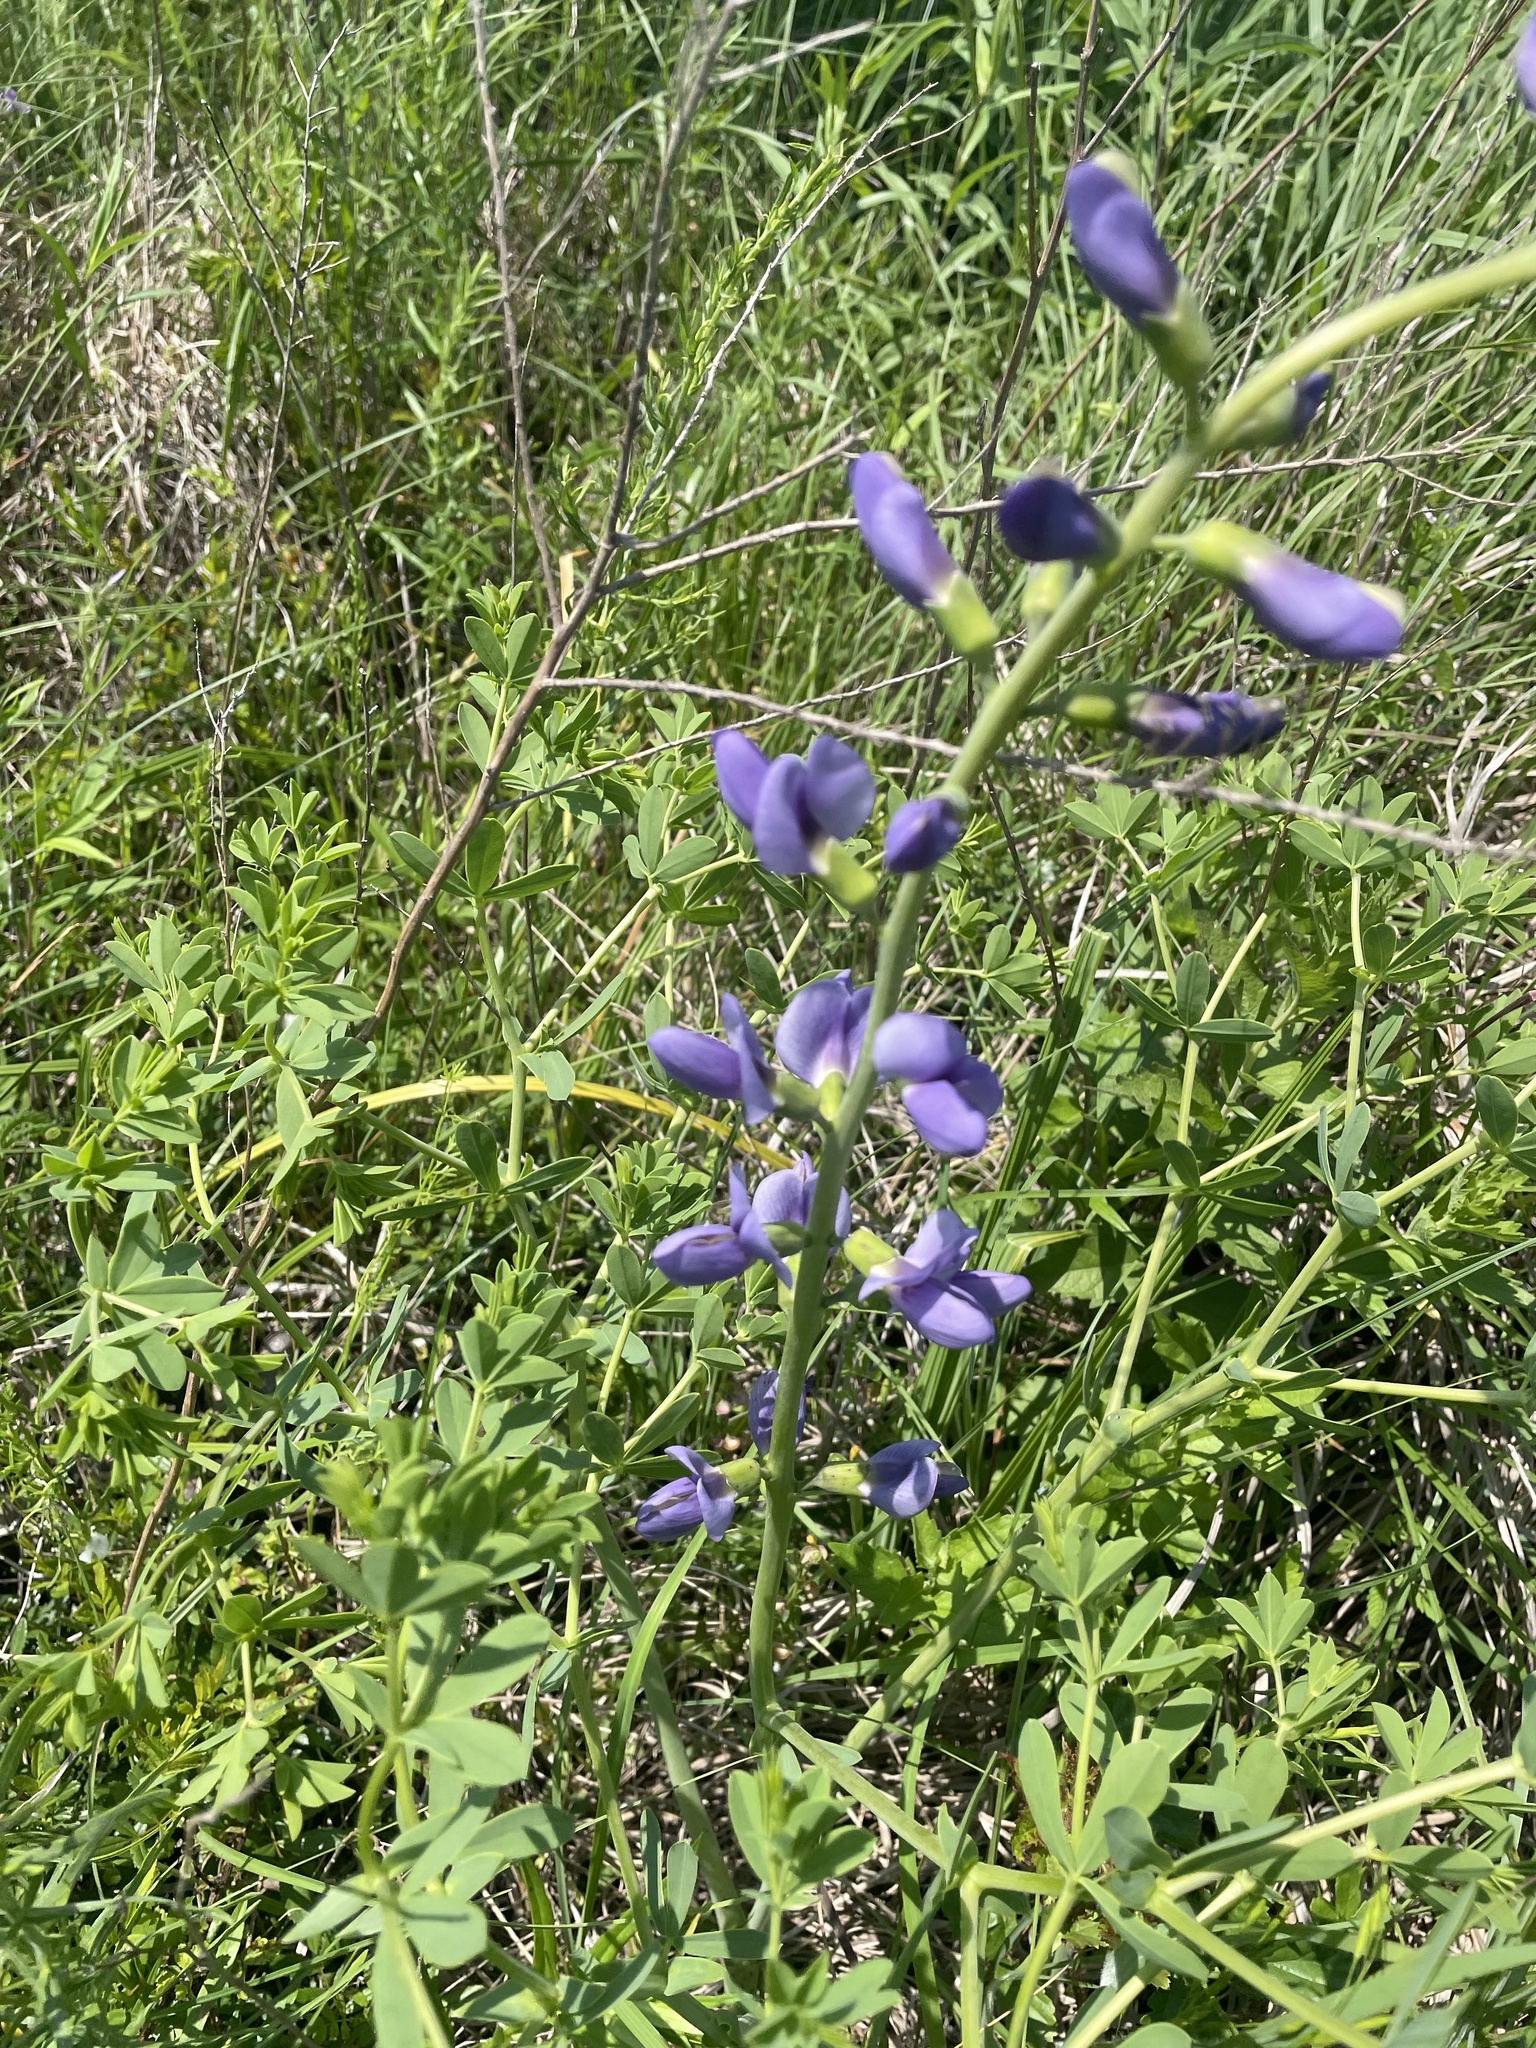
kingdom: Plantae
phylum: Tracheophyta
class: Magnoliopsida
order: Fabales
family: Fabaceae
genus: Baptisia
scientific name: Baptisia australis
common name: Blue false indigo
